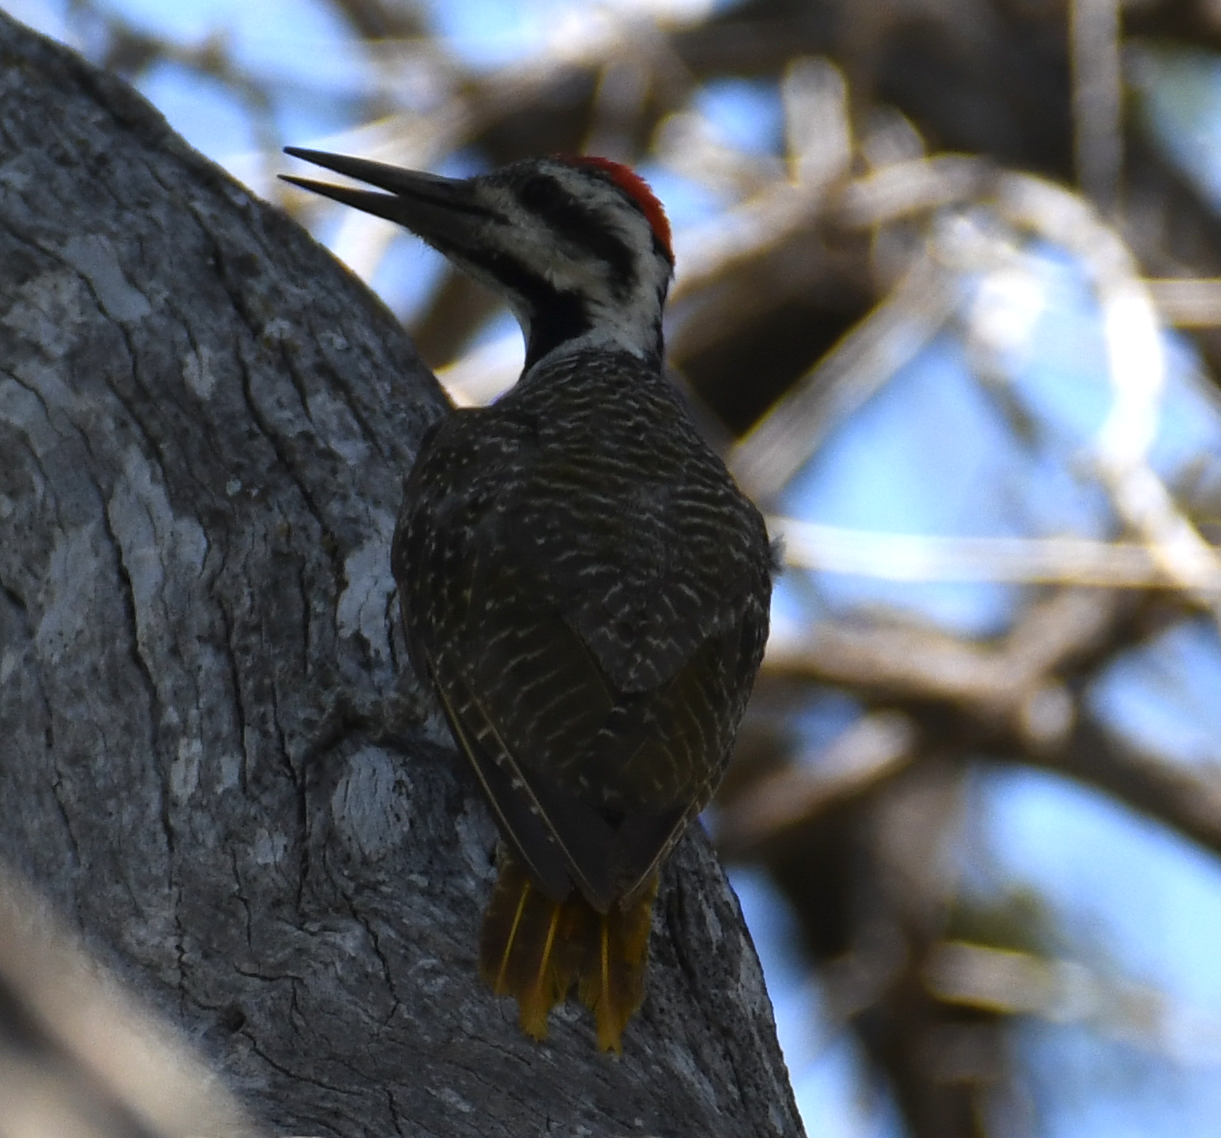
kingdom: Animalia
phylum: Chordata
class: Aves
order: Piciformes
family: Picidae
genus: Chloropicus
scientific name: Chloropicus namaquus
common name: Bearded woodpecker
